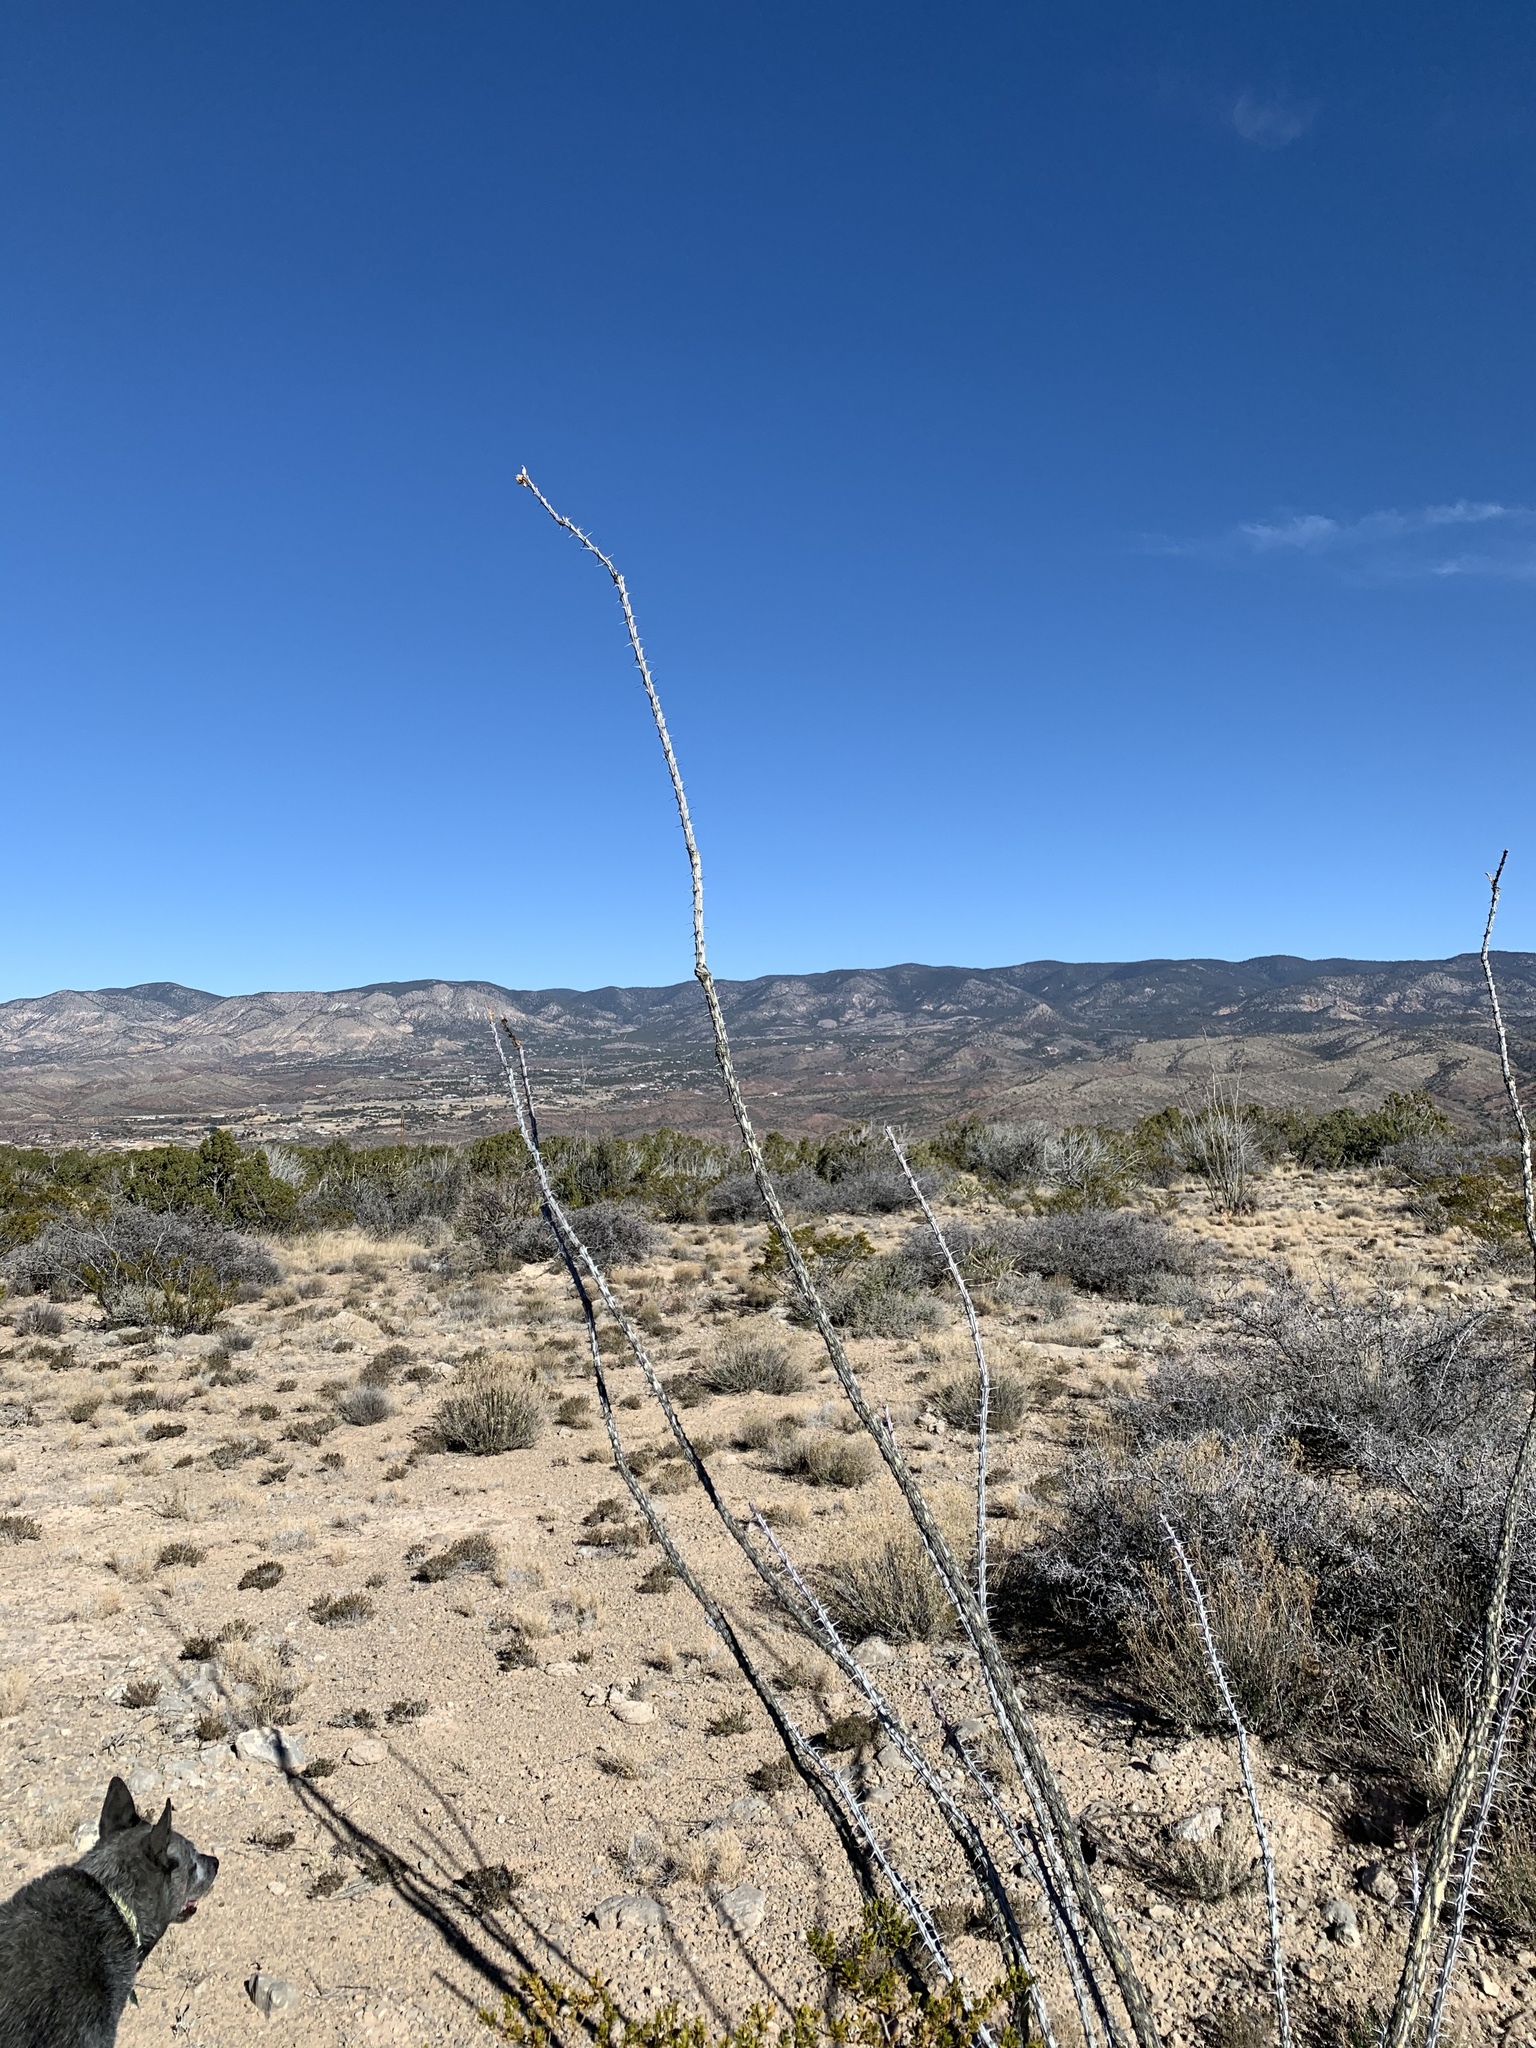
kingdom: Plantae
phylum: Tracheophyta
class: Magnoliopsida
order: Ericales
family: Fouquieriaceae
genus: Fouquieria
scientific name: Fouquieria splendens
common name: Vine-cactus
